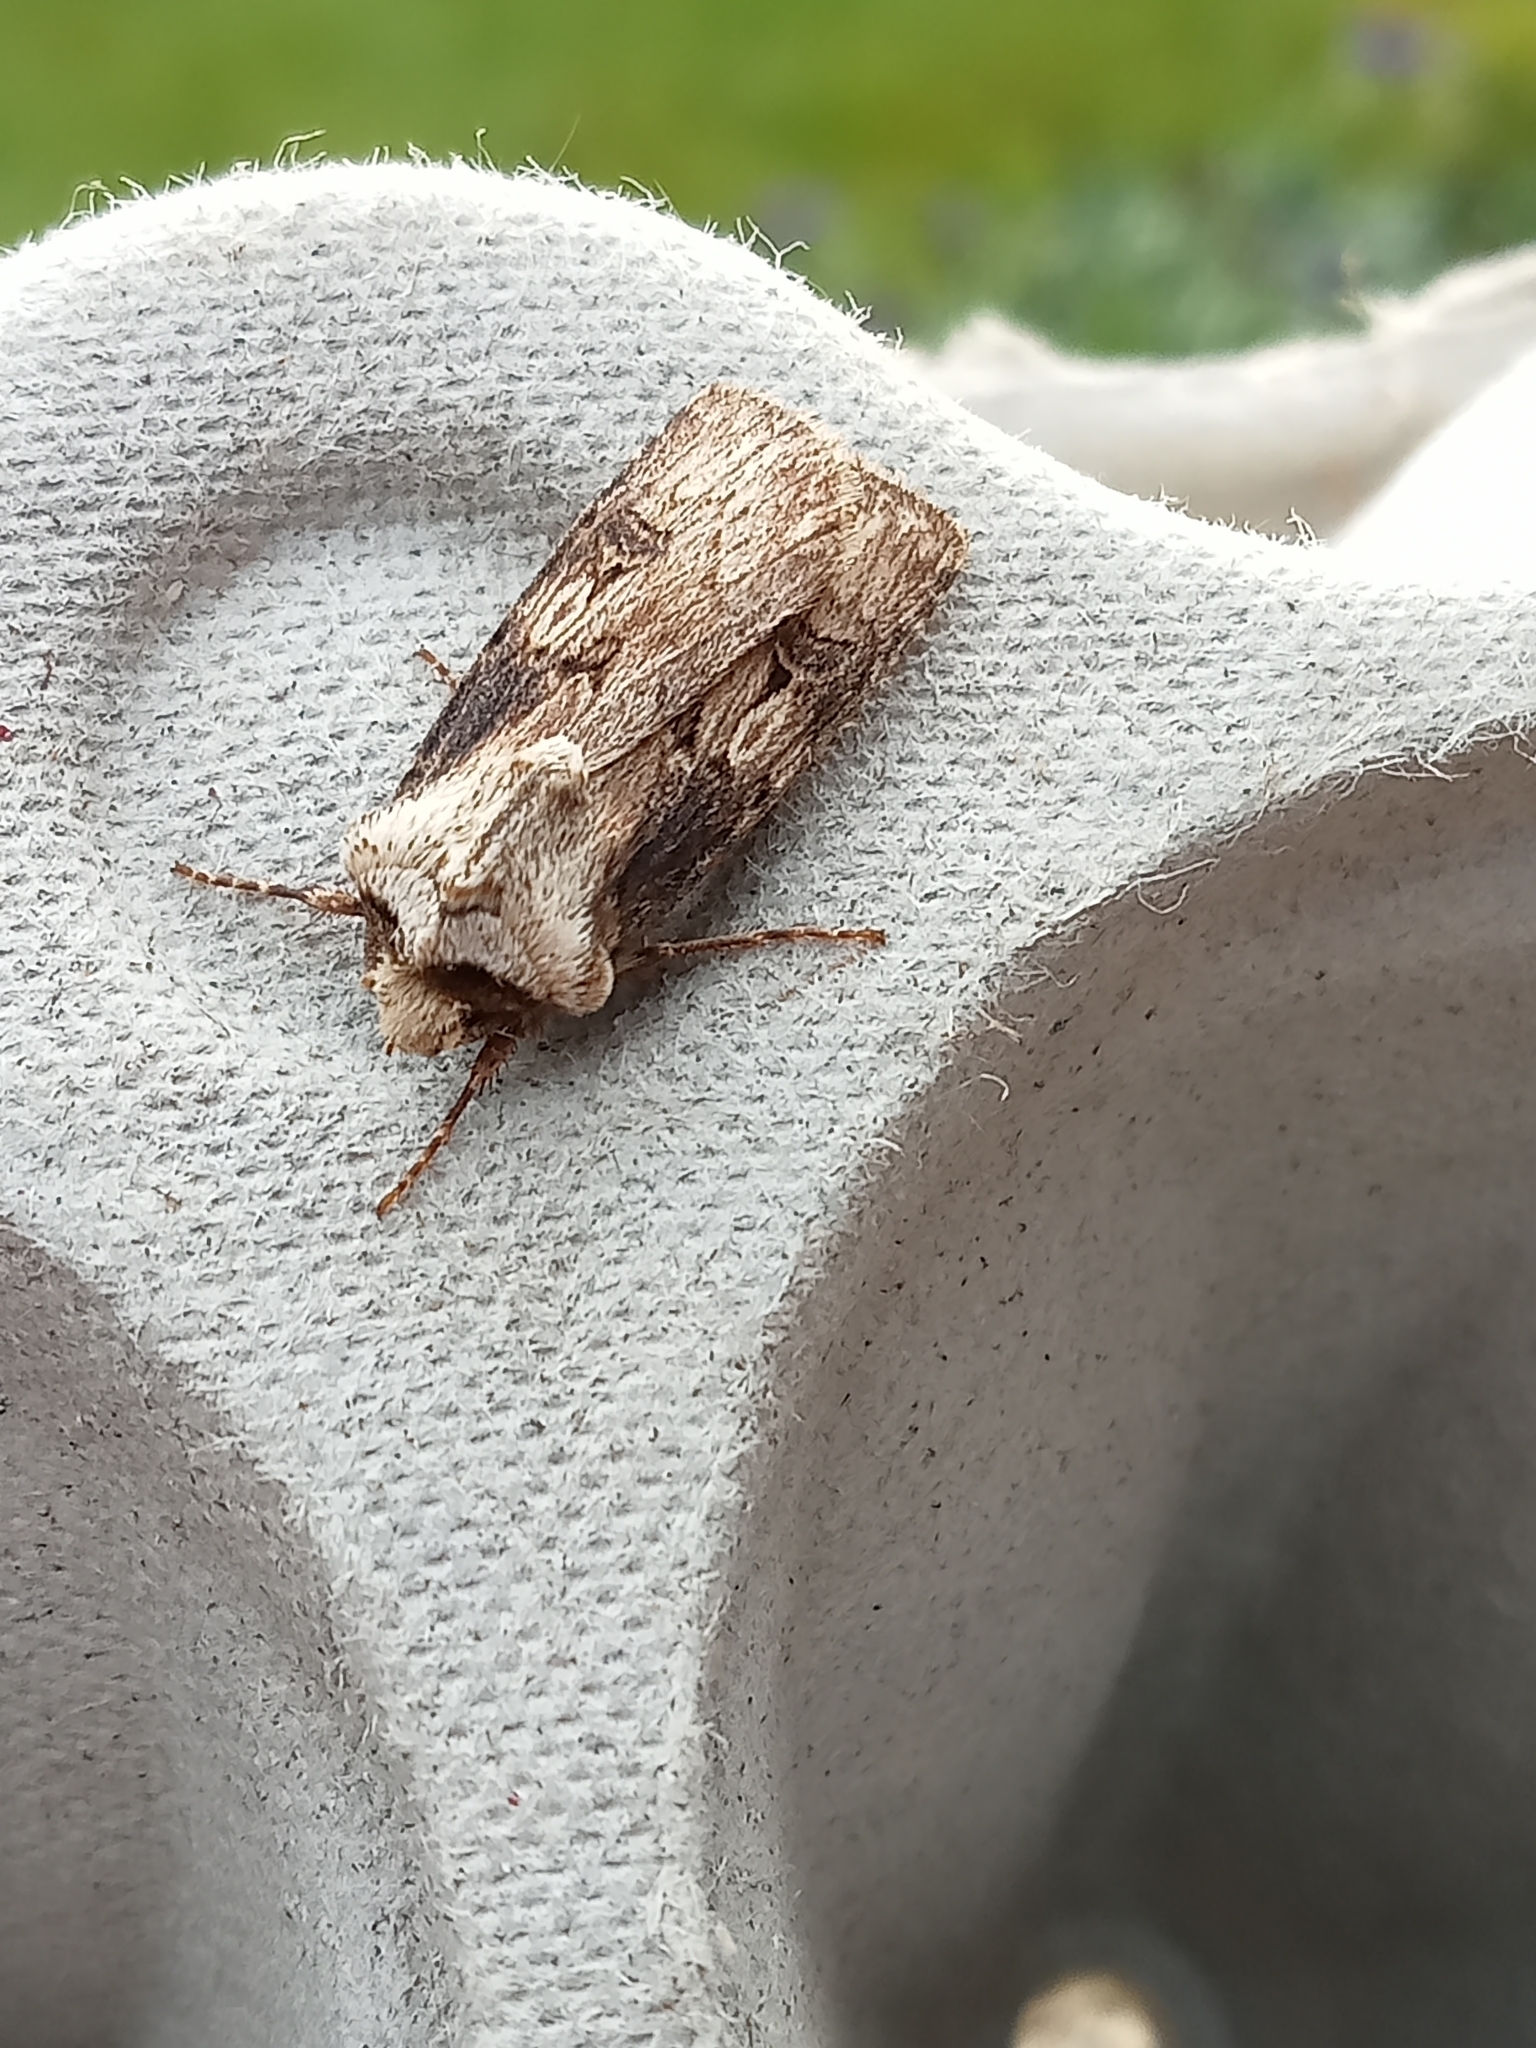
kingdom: Animalia
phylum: Arthropoda
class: Insecta
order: Lepidoptera
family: Noctuidae
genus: Agrotis
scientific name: Agrotis puta
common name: Shuttle-shaped dart
